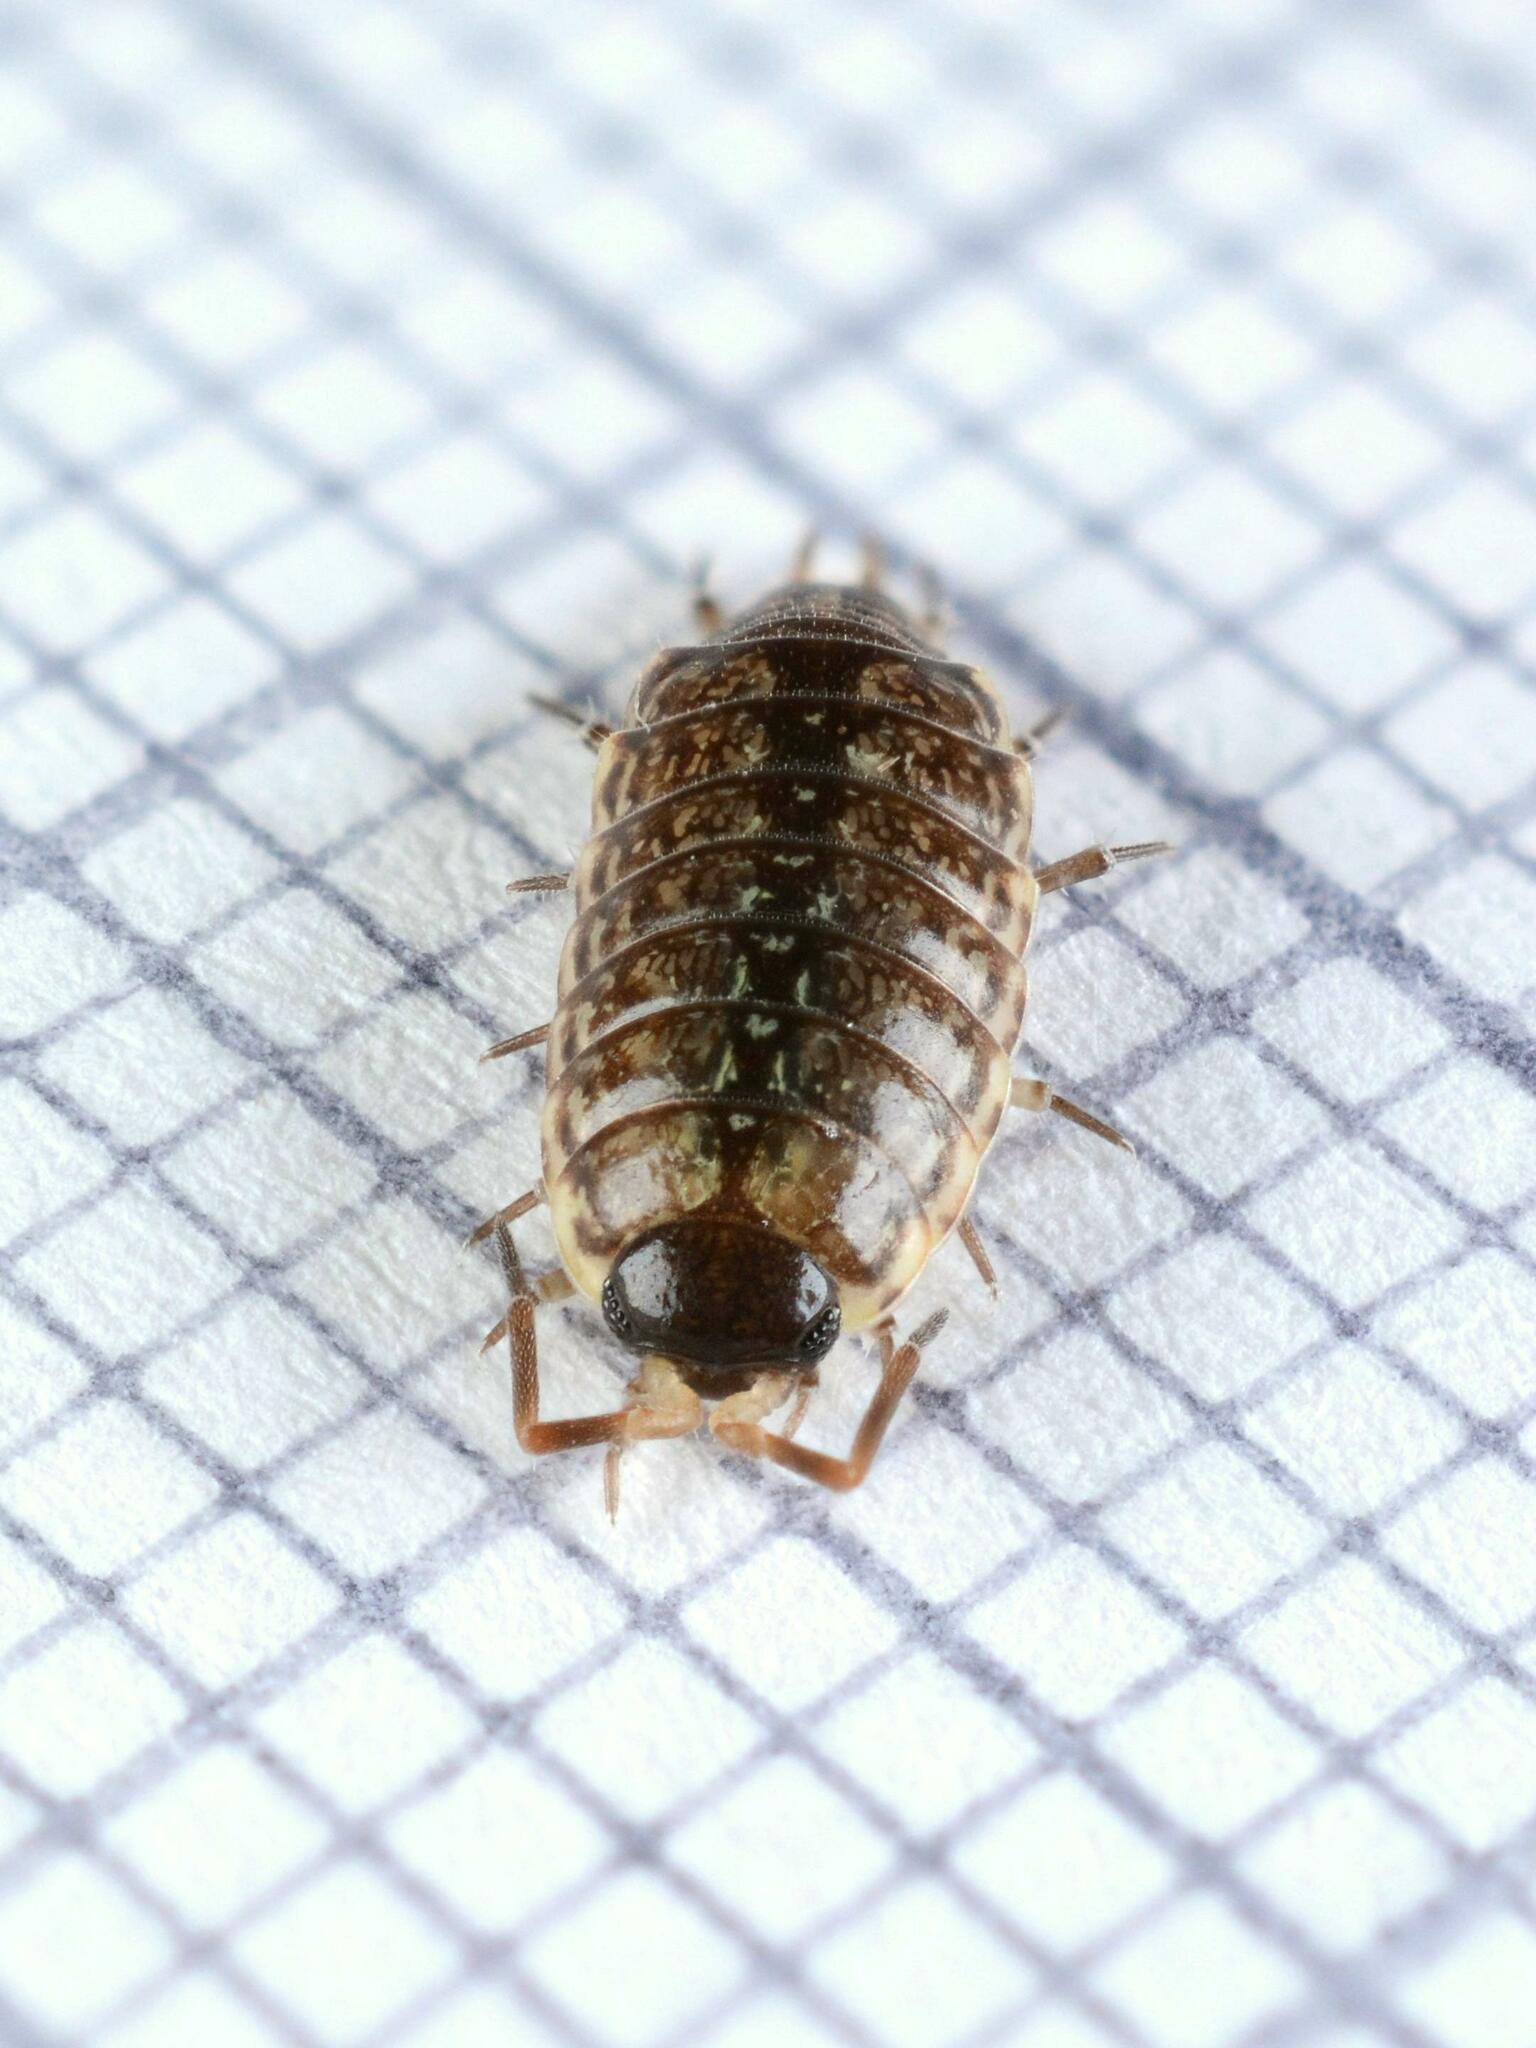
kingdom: Animalia
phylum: Arthropoda
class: Malacostraca
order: Isopoda
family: Philosciidae
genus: Philoscia
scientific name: Philoscia muscorum
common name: Common striped woodlouse
